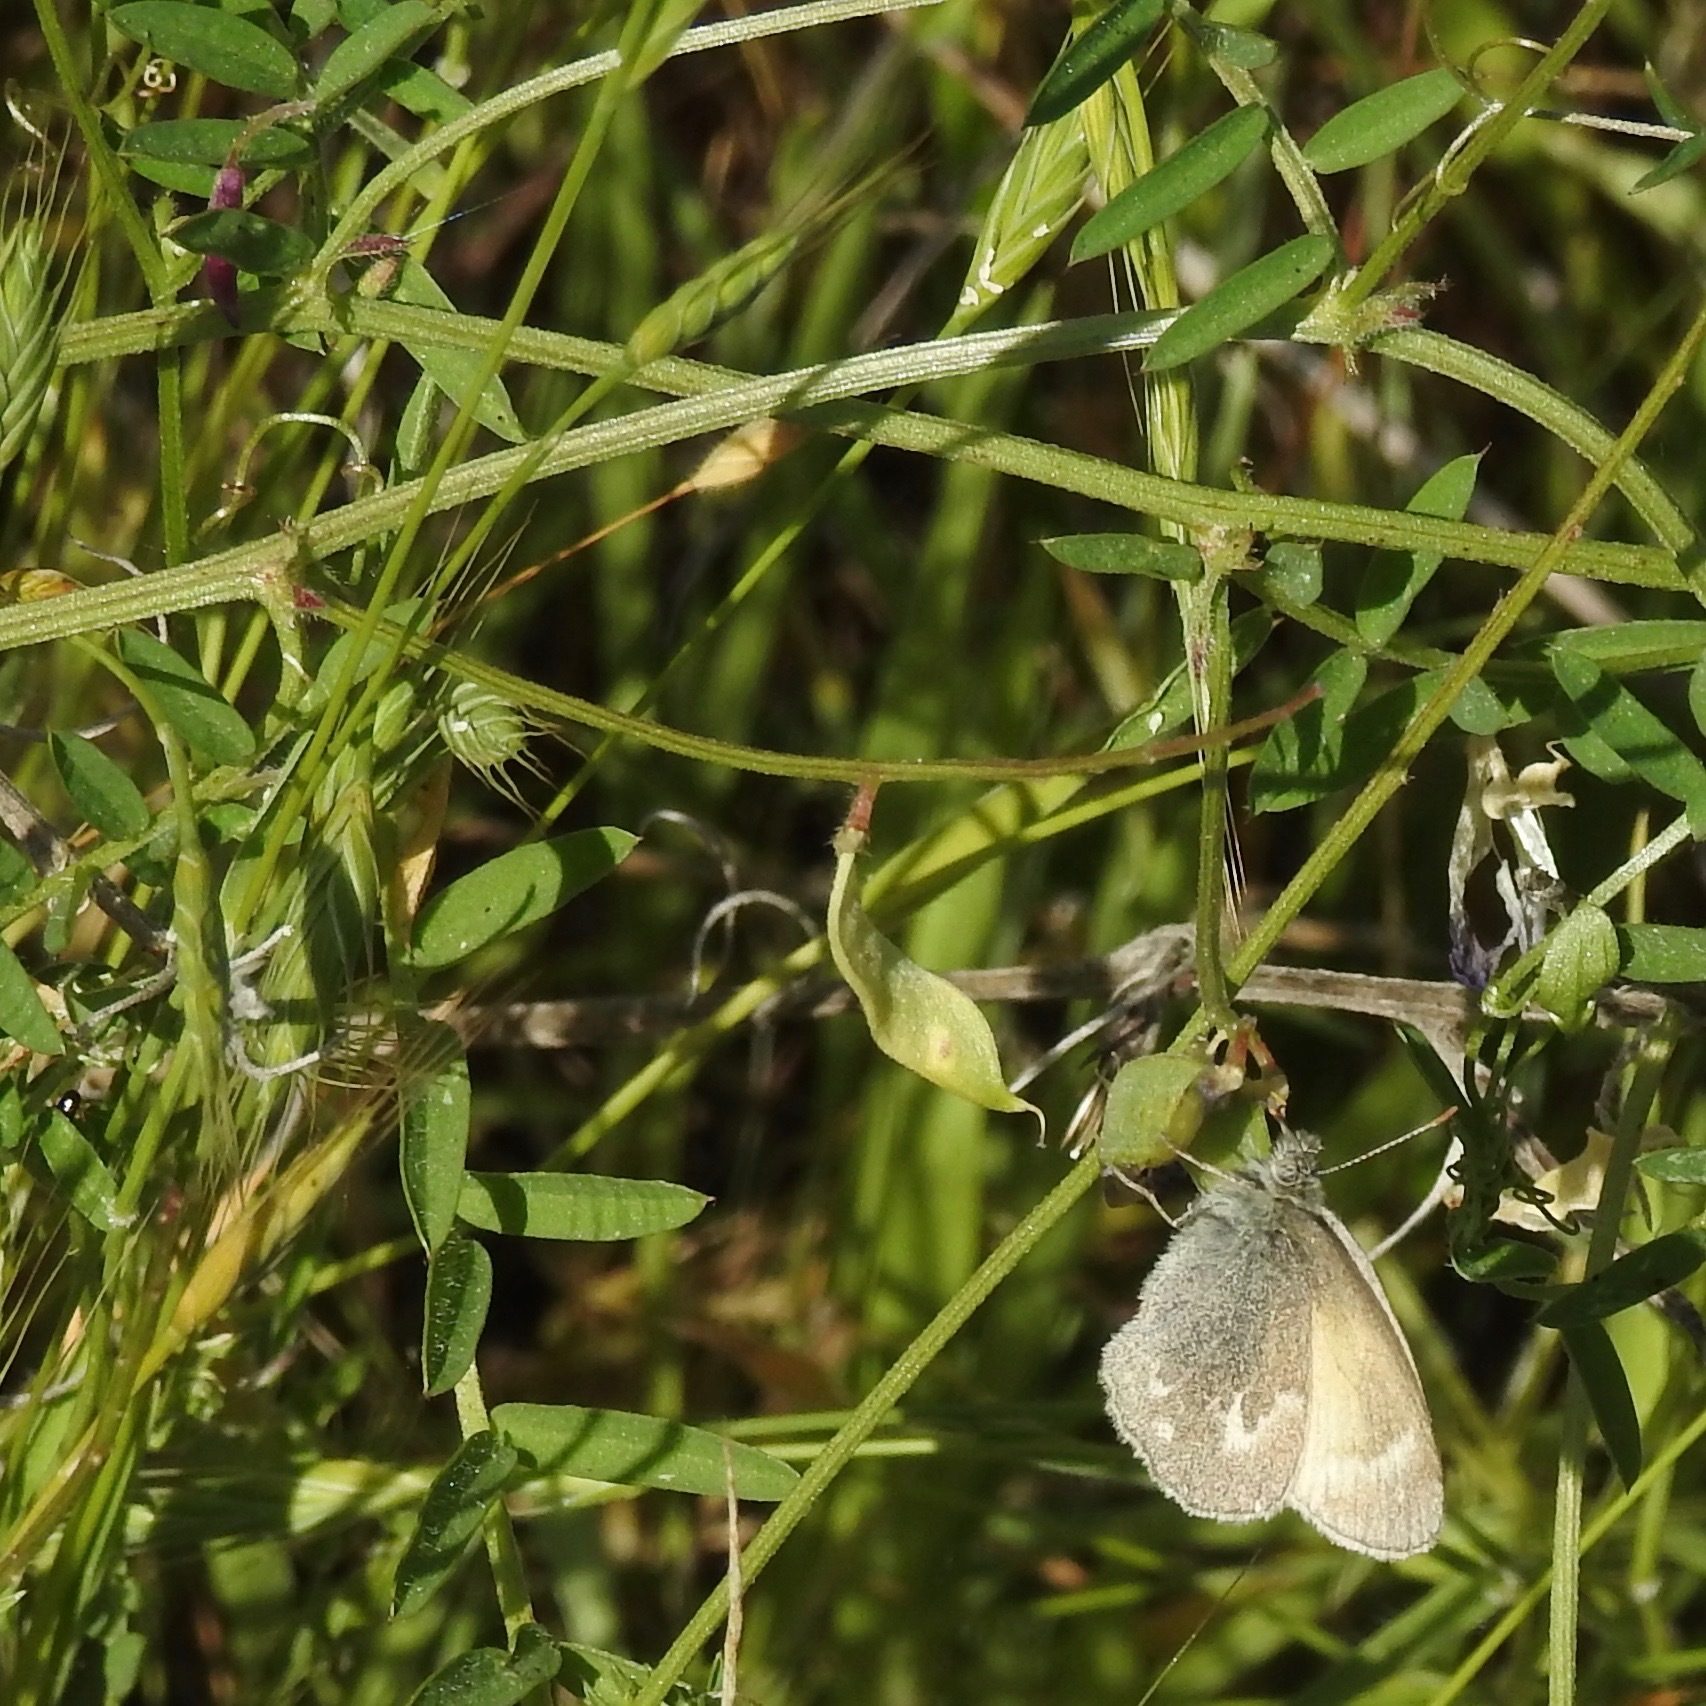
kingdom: Animalia
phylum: Arthropoda
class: Insecta
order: Lepidoptera
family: Nymphalidae
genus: Coenonympha
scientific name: Coenonympha california
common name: Common ringlet
